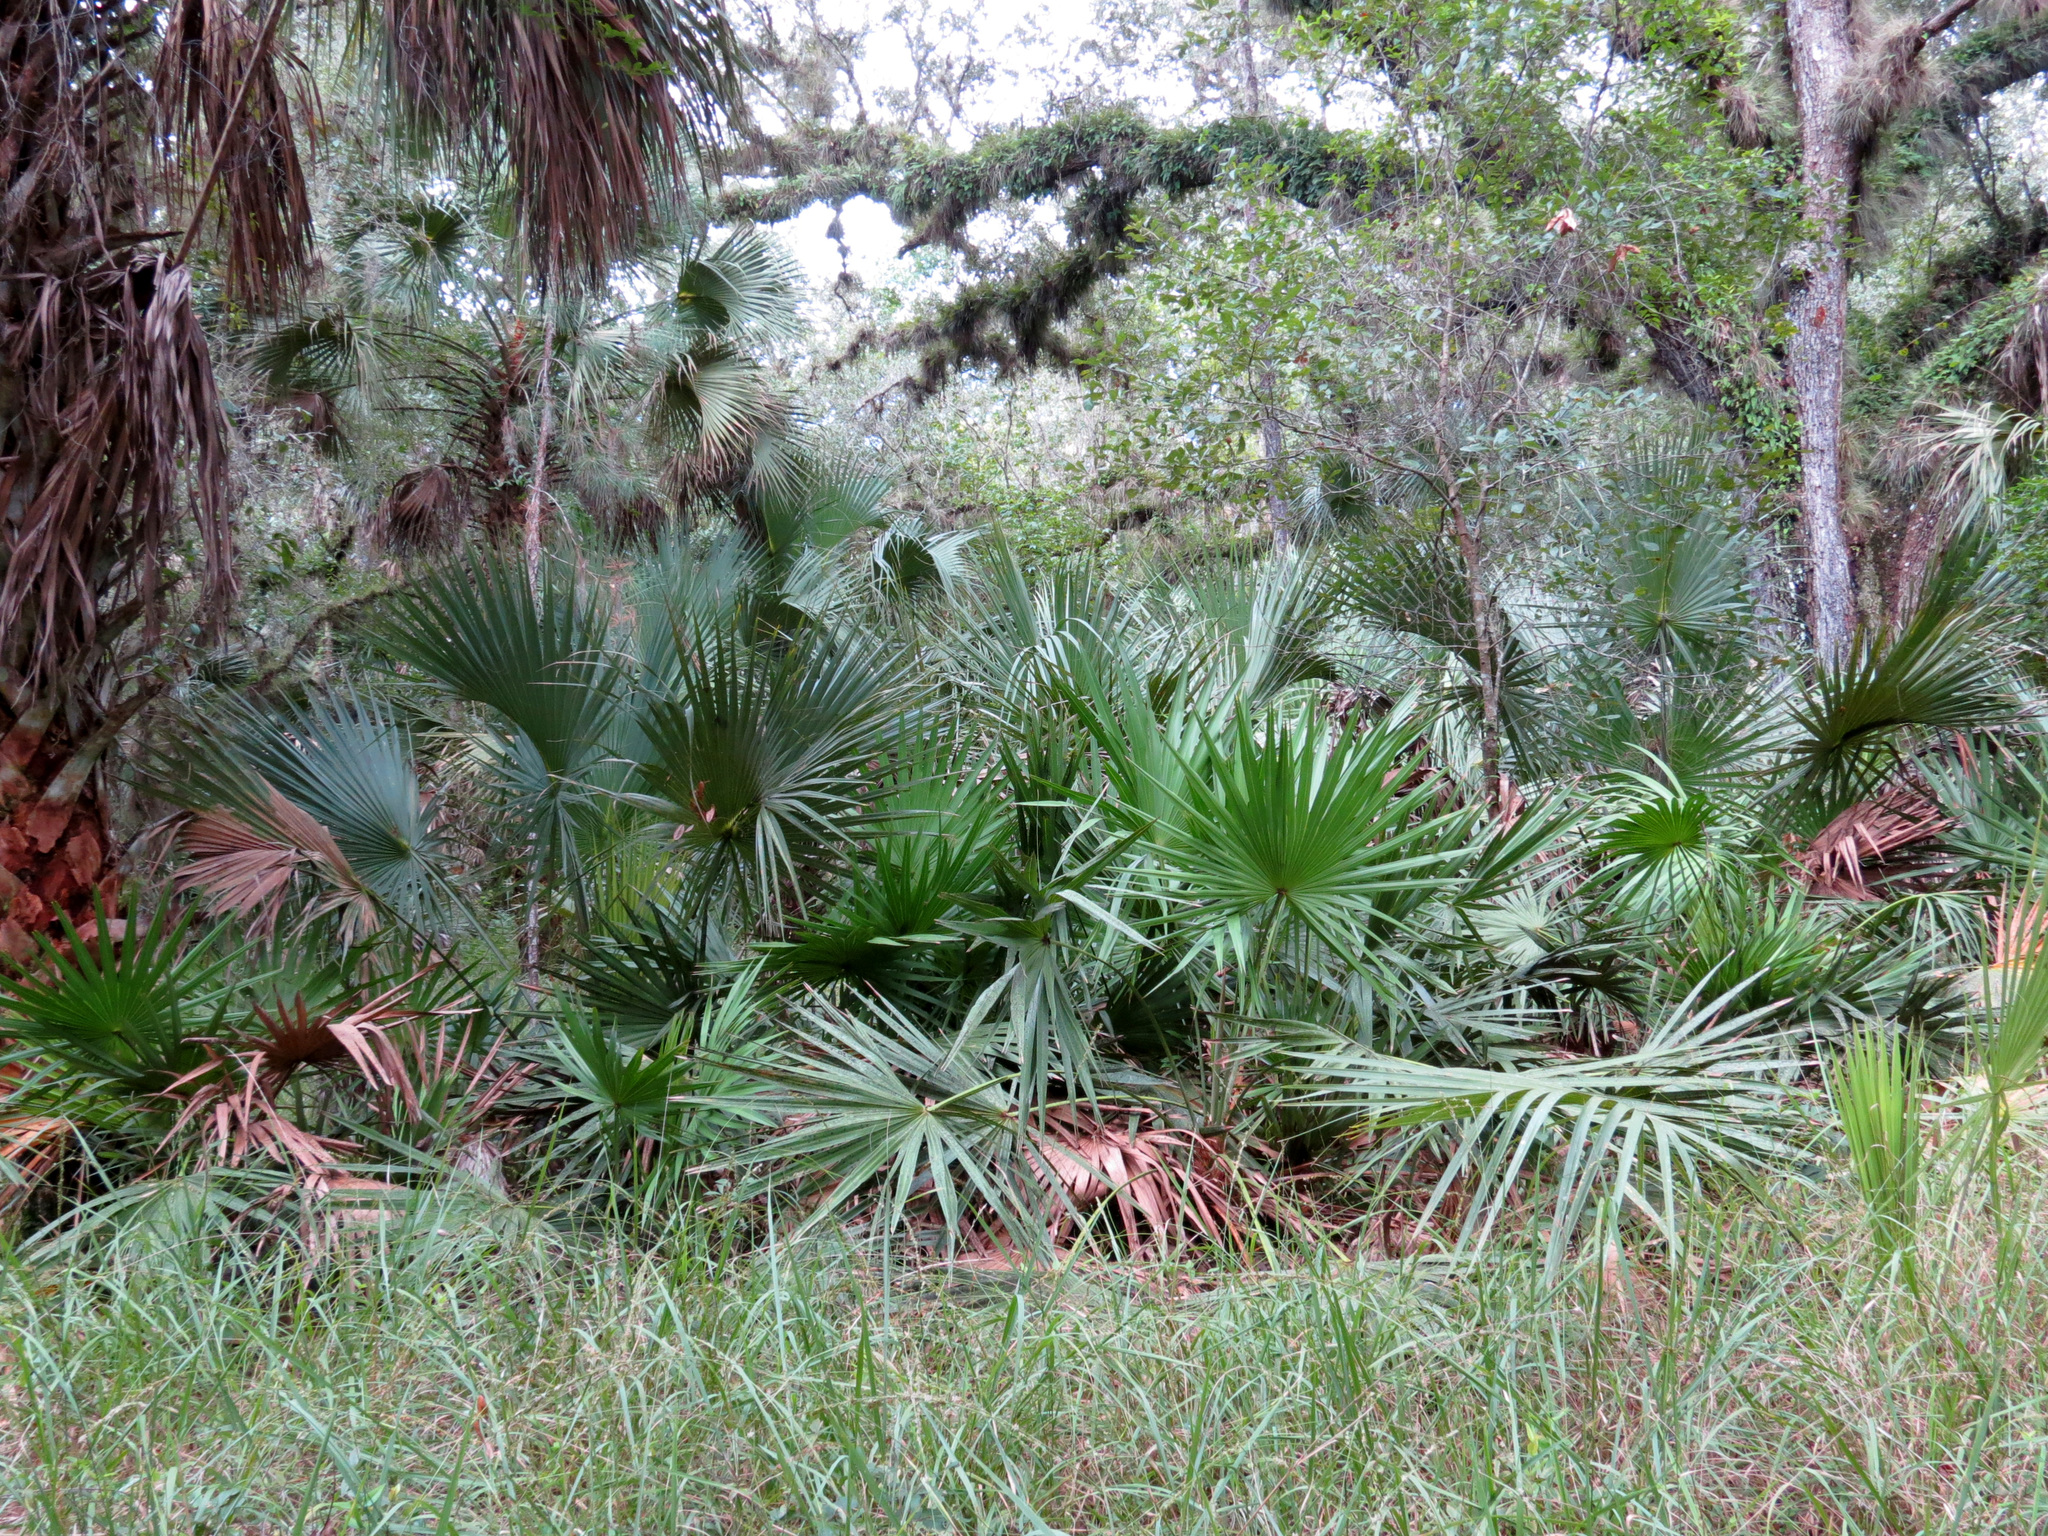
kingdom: Plantae
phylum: Tracheophyta
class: Liliopsida
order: Arecales
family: Arecaceae
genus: Serenoa
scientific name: Serenoa repens
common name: Saw-palmetto
